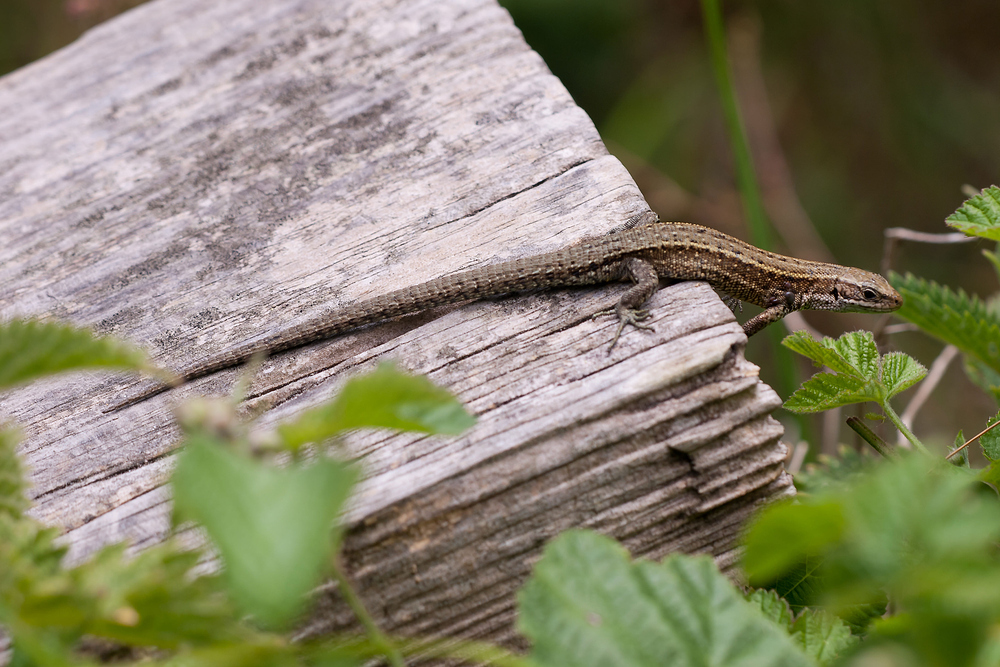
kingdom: Animalia
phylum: Chordata
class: Squamata
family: Lacertidae
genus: Zootoca
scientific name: Zootoca vivipara
